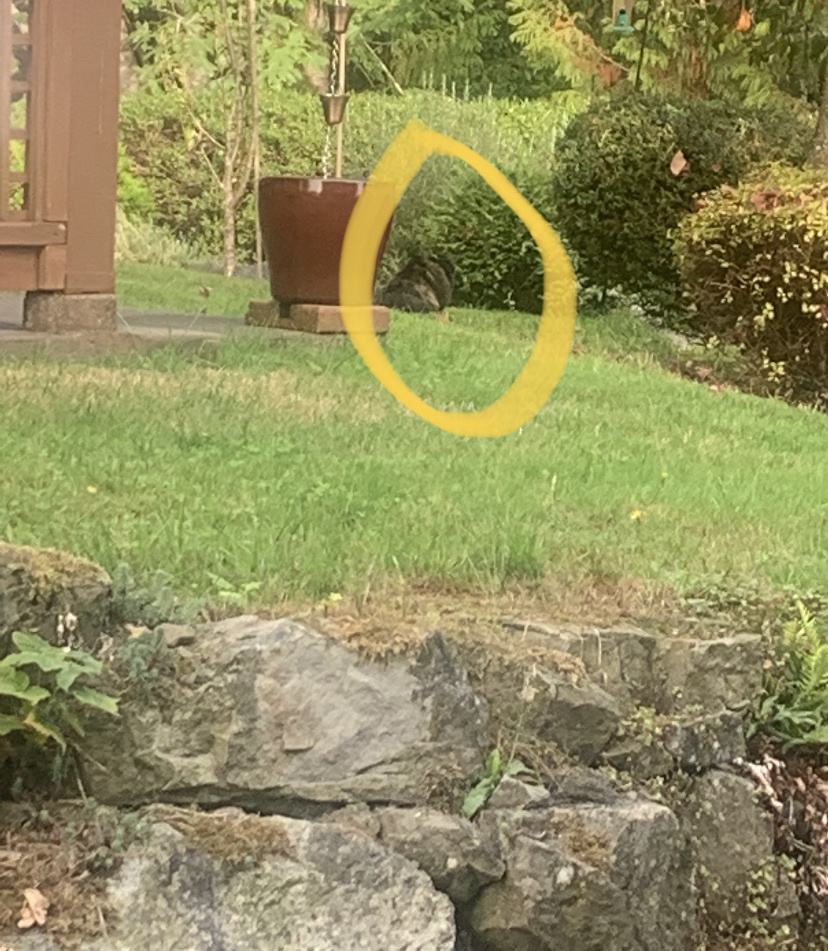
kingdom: Animalia
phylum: Chordata
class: Mammalia
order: Carnivora
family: Felidae
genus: Felis
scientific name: Felis catus
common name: Domestic cat
